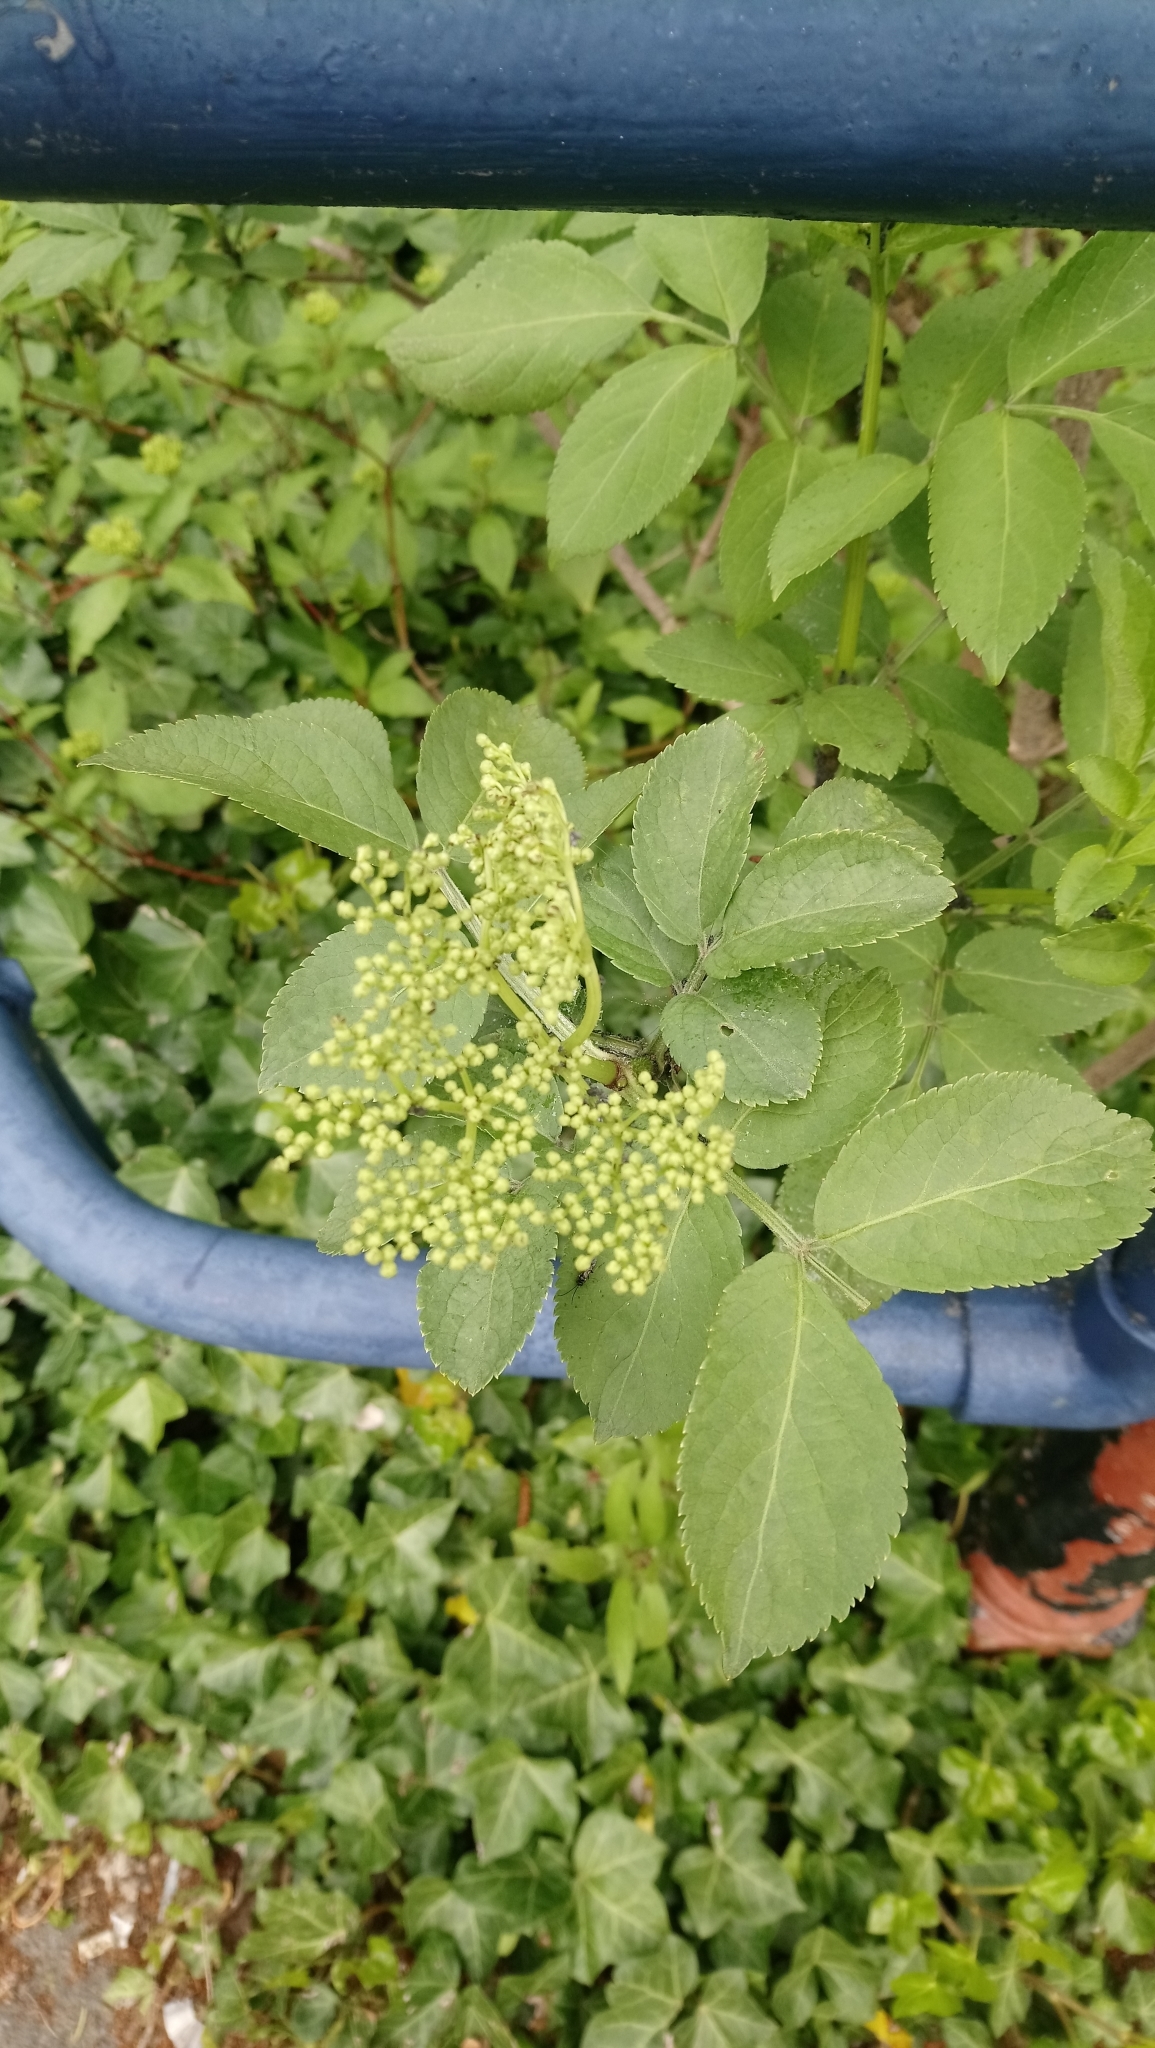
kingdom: Plantae
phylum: Tracheophyta
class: Magnoliopsida
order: Dipsacales
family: Viburnaceae
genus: Sambucus
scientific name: Sambucus nigra
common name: Elder
